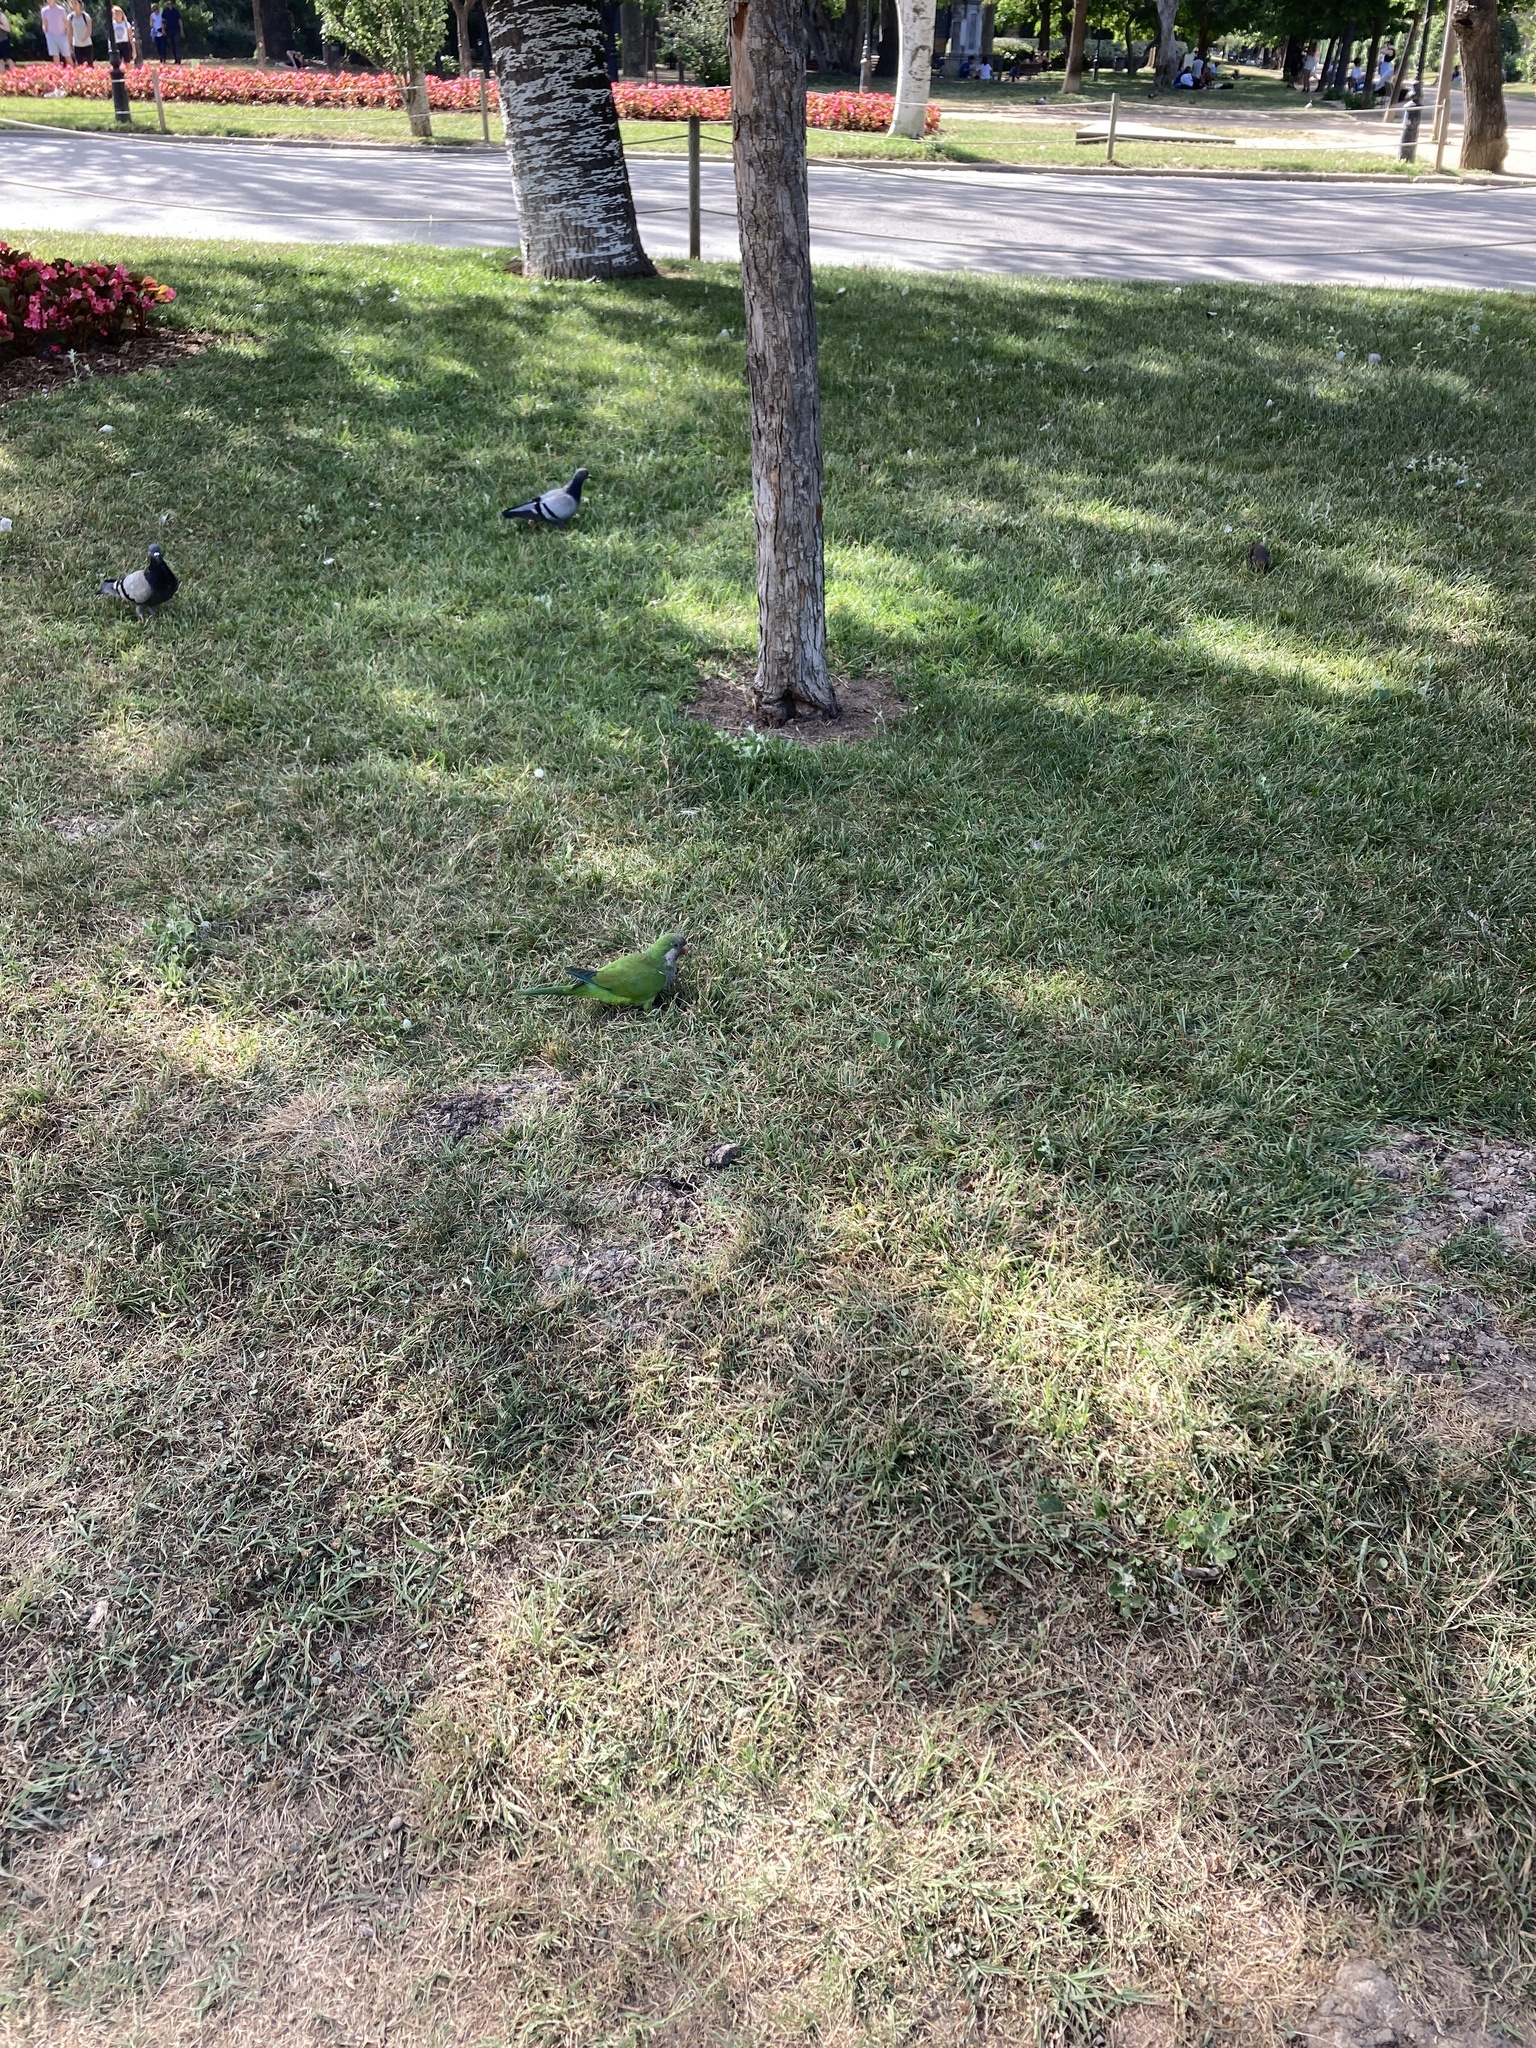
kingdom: Animalia
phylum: Chordata
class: Aves
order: Psittaciformes
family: Psittacidae
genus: Myiopsitta
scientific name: Myiopsitta monachus
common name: Monk parakeet
